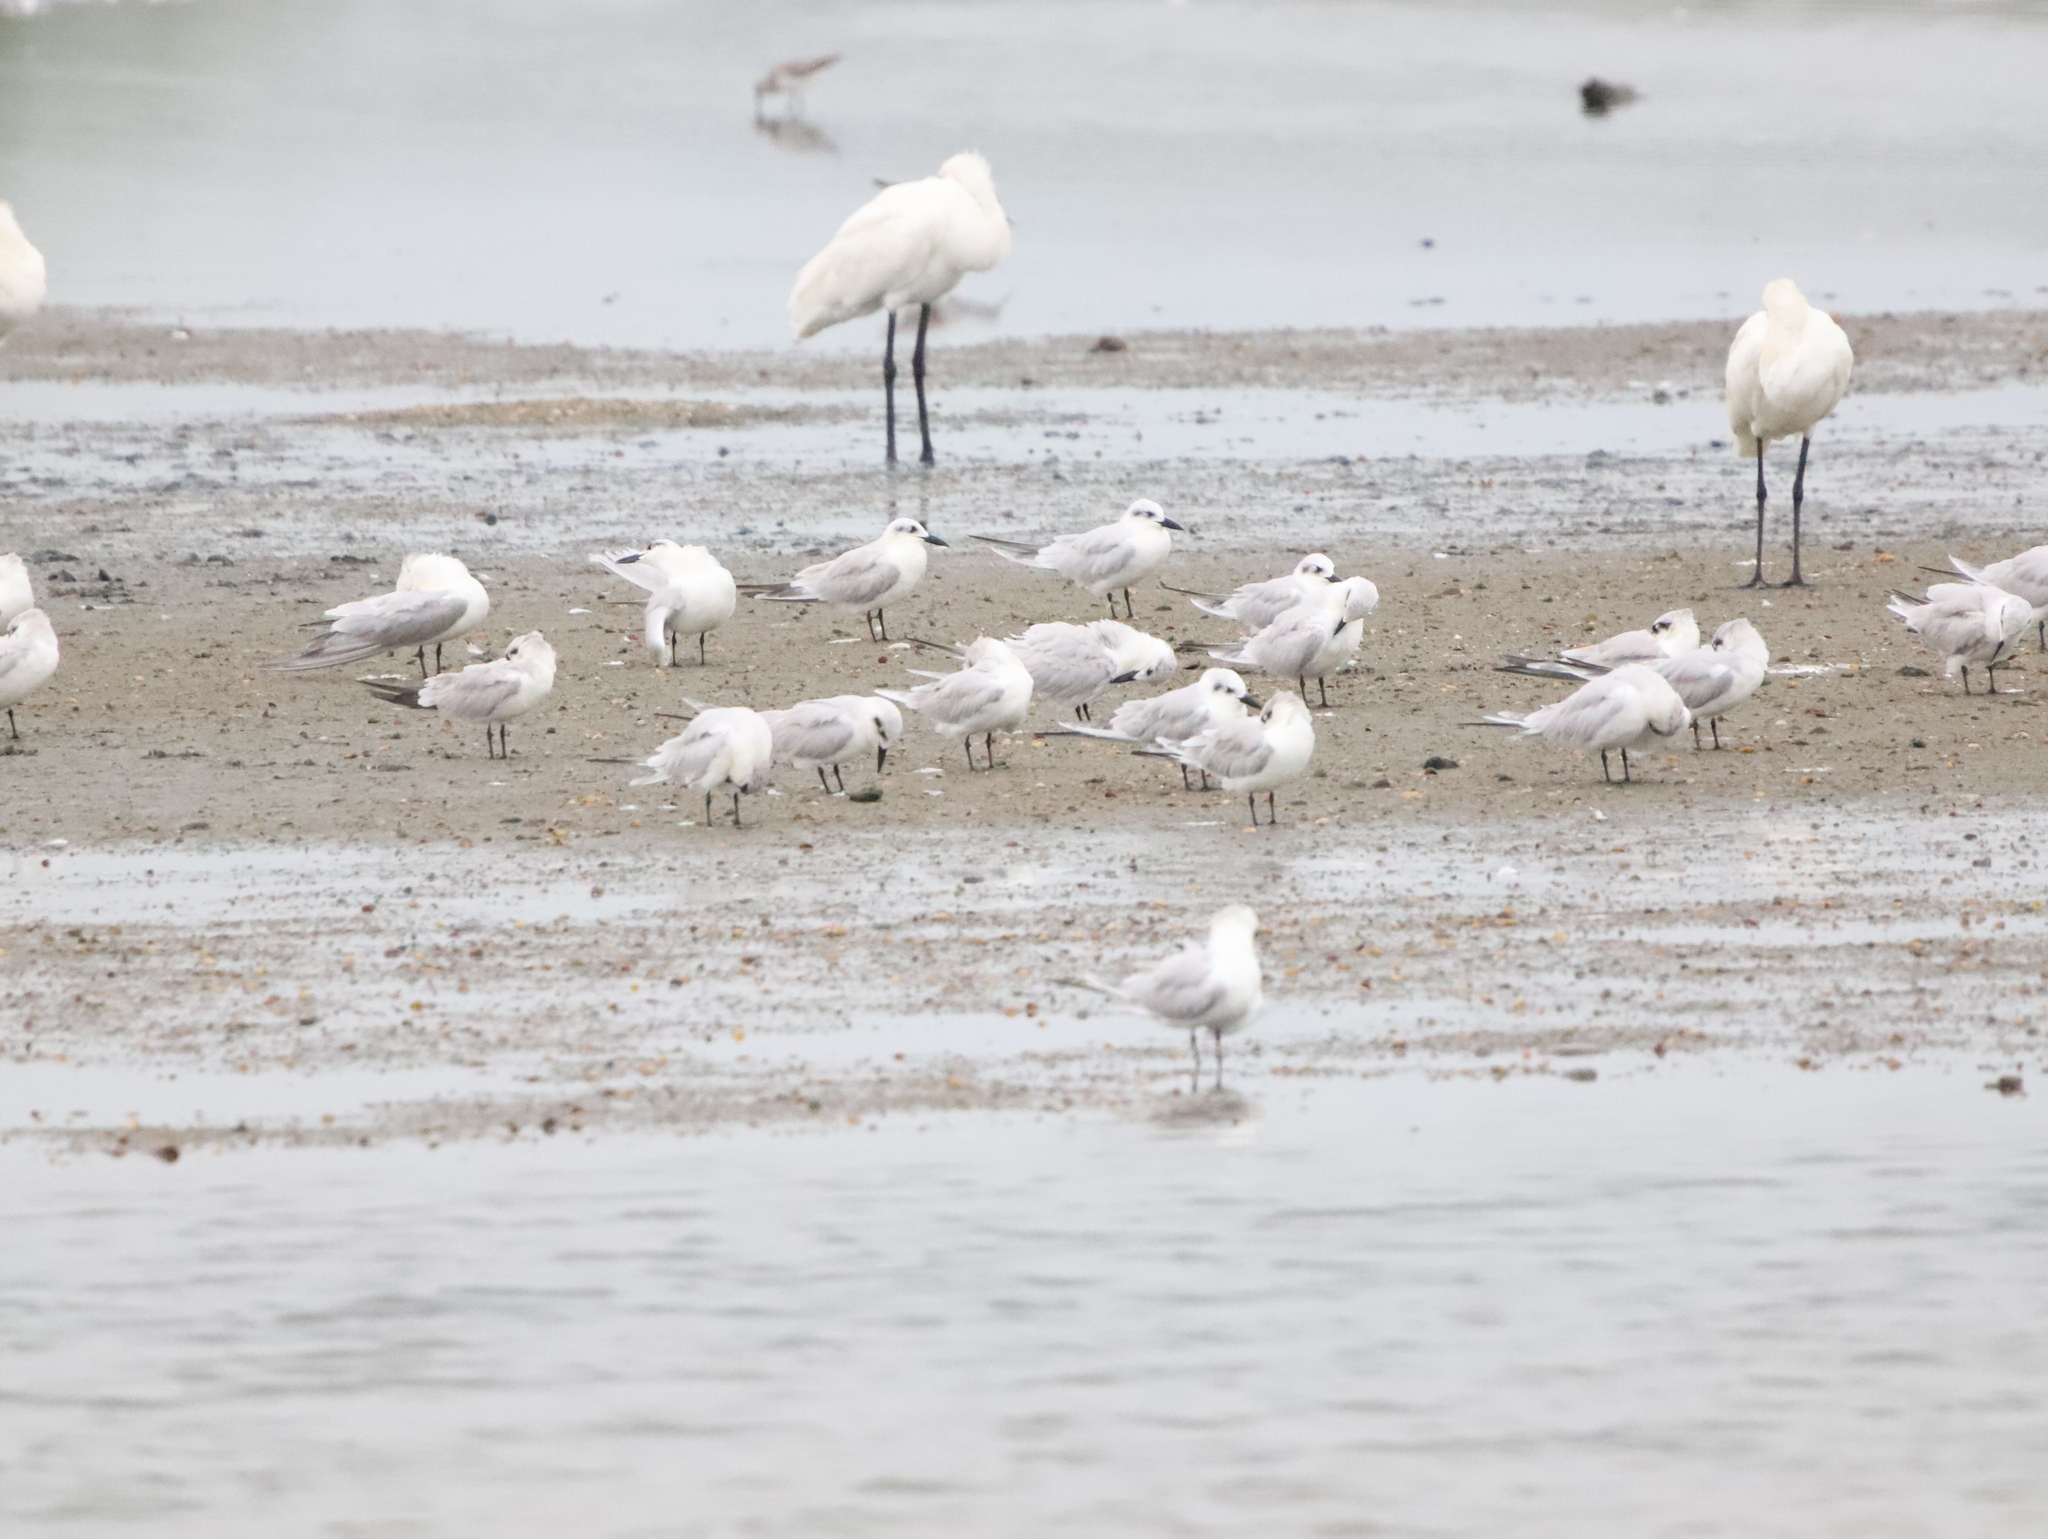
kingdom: Animalia
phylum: Chordata
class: Aves
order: Charadriiformes
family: Laridae
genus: Gelochelidon
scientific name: Gelochelidon nilotica
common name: Gull-billed tern
